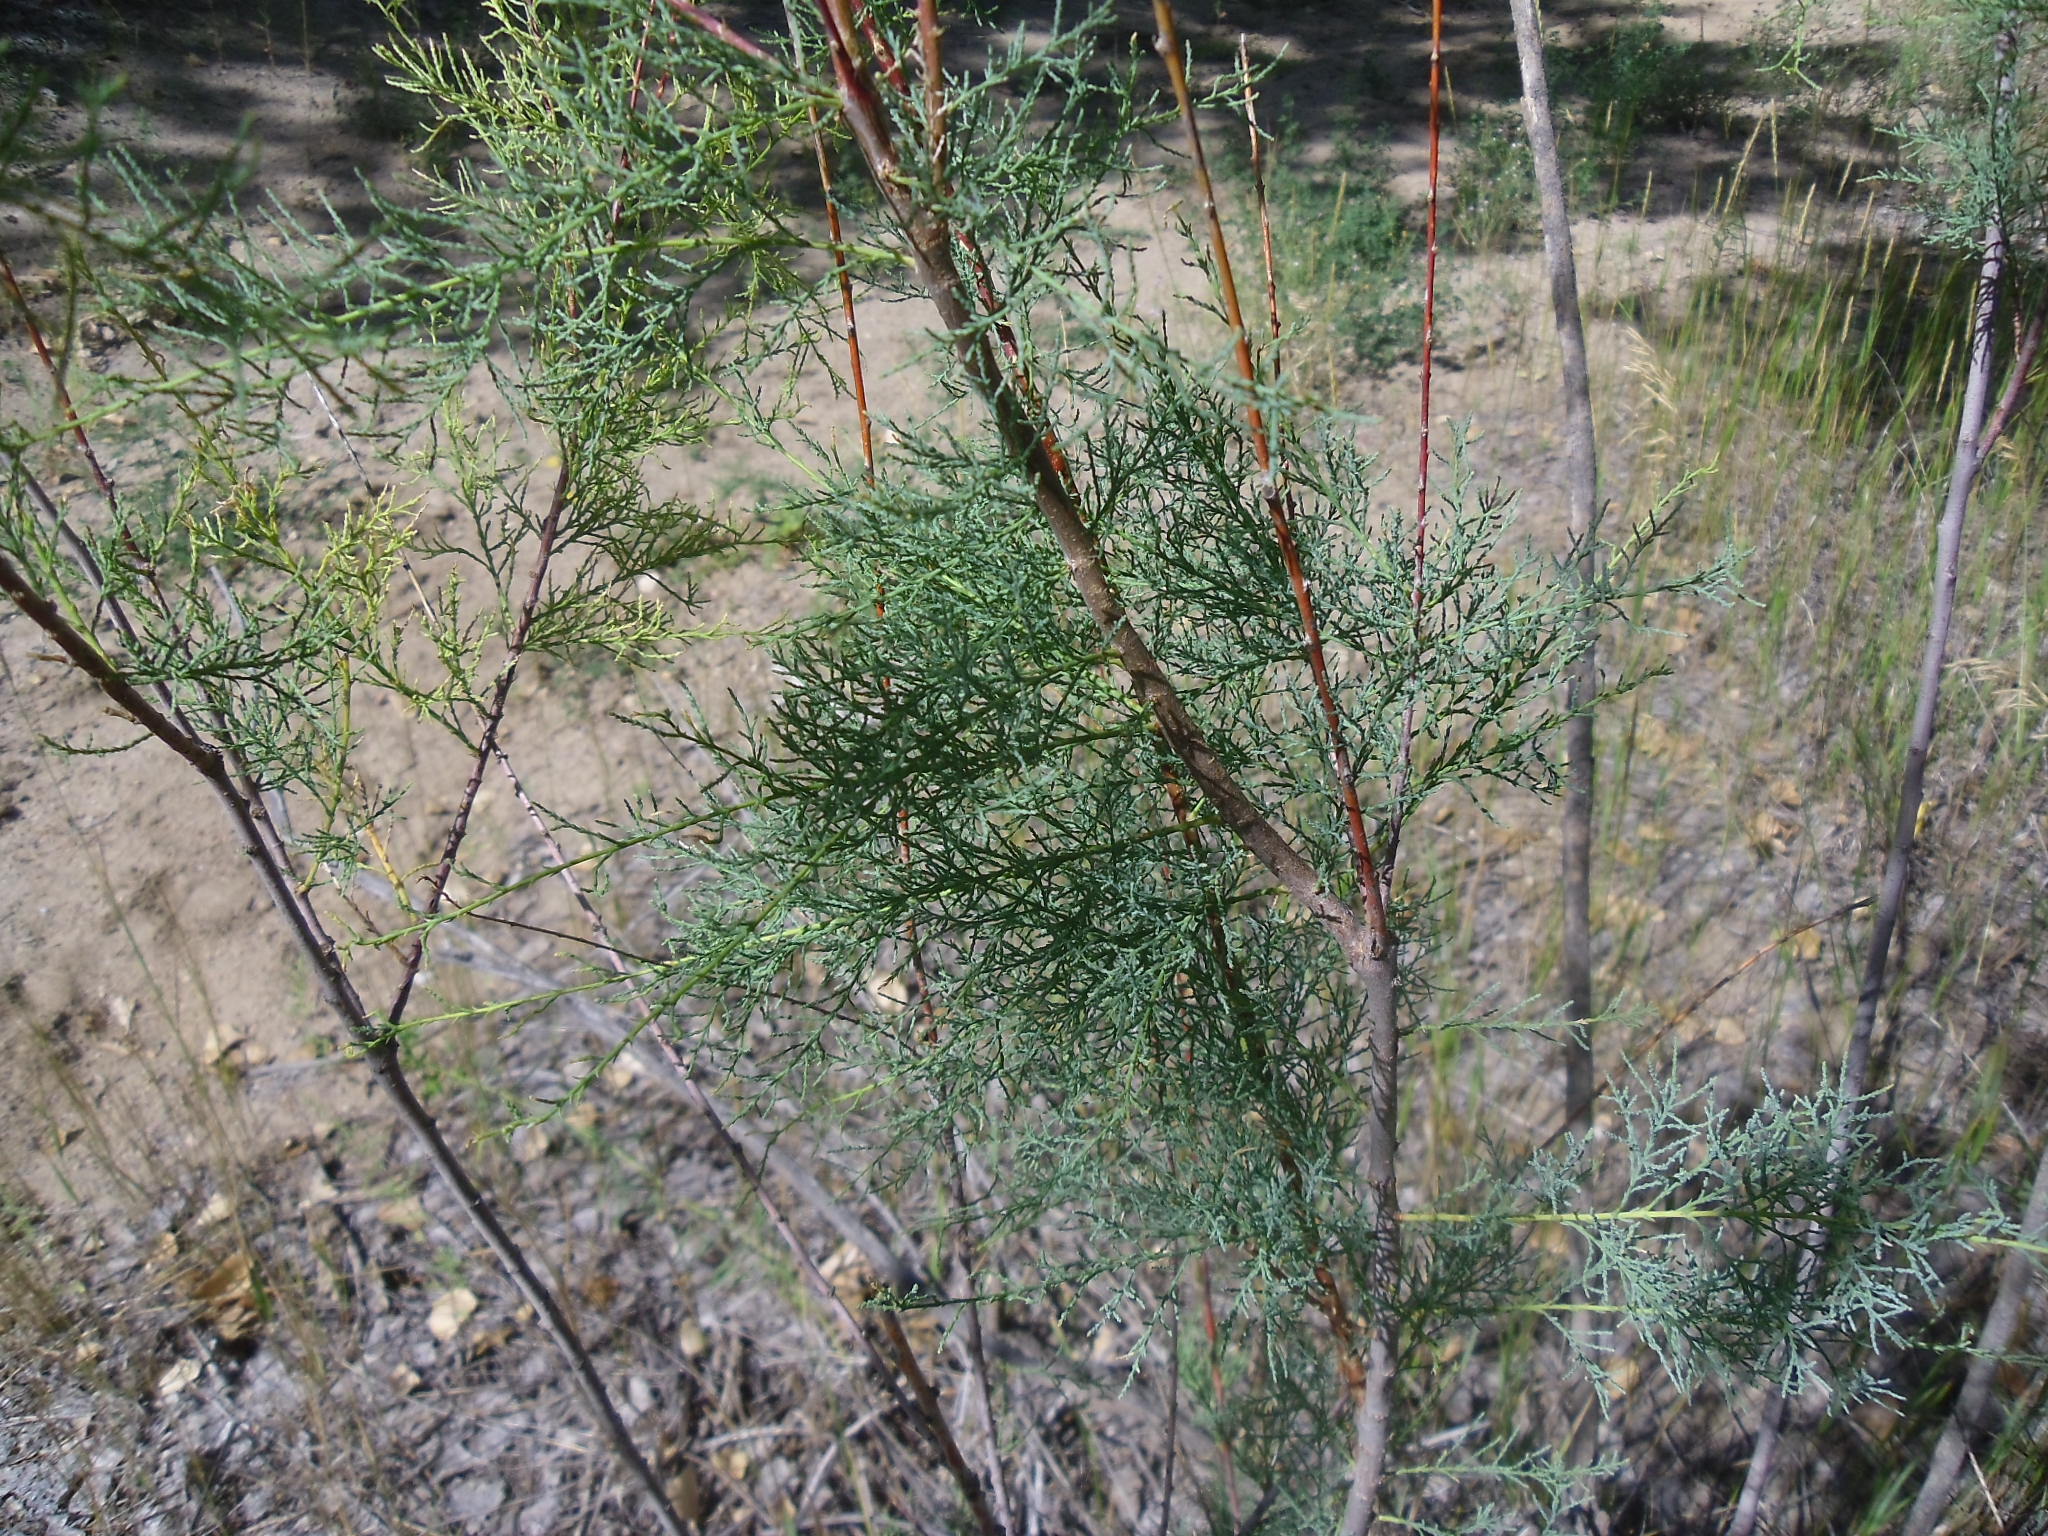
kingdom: Plantae
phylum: Tracheophyta
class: Magnoliopsida
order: Caryophyllales
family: Tamaricaceae
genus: Tamarix
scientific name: Tamarix
